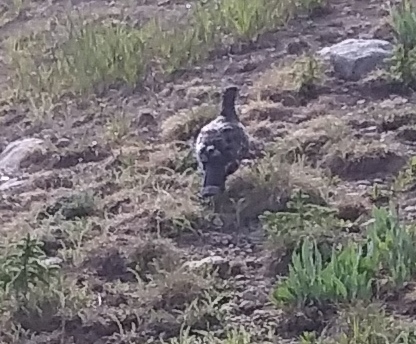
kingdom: Animalia
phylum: Chordata
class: Aves
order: Galliformes
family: Phasianidae
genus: Dendragapus
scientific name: Dendragapus obscurus
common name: Dusky grouse
